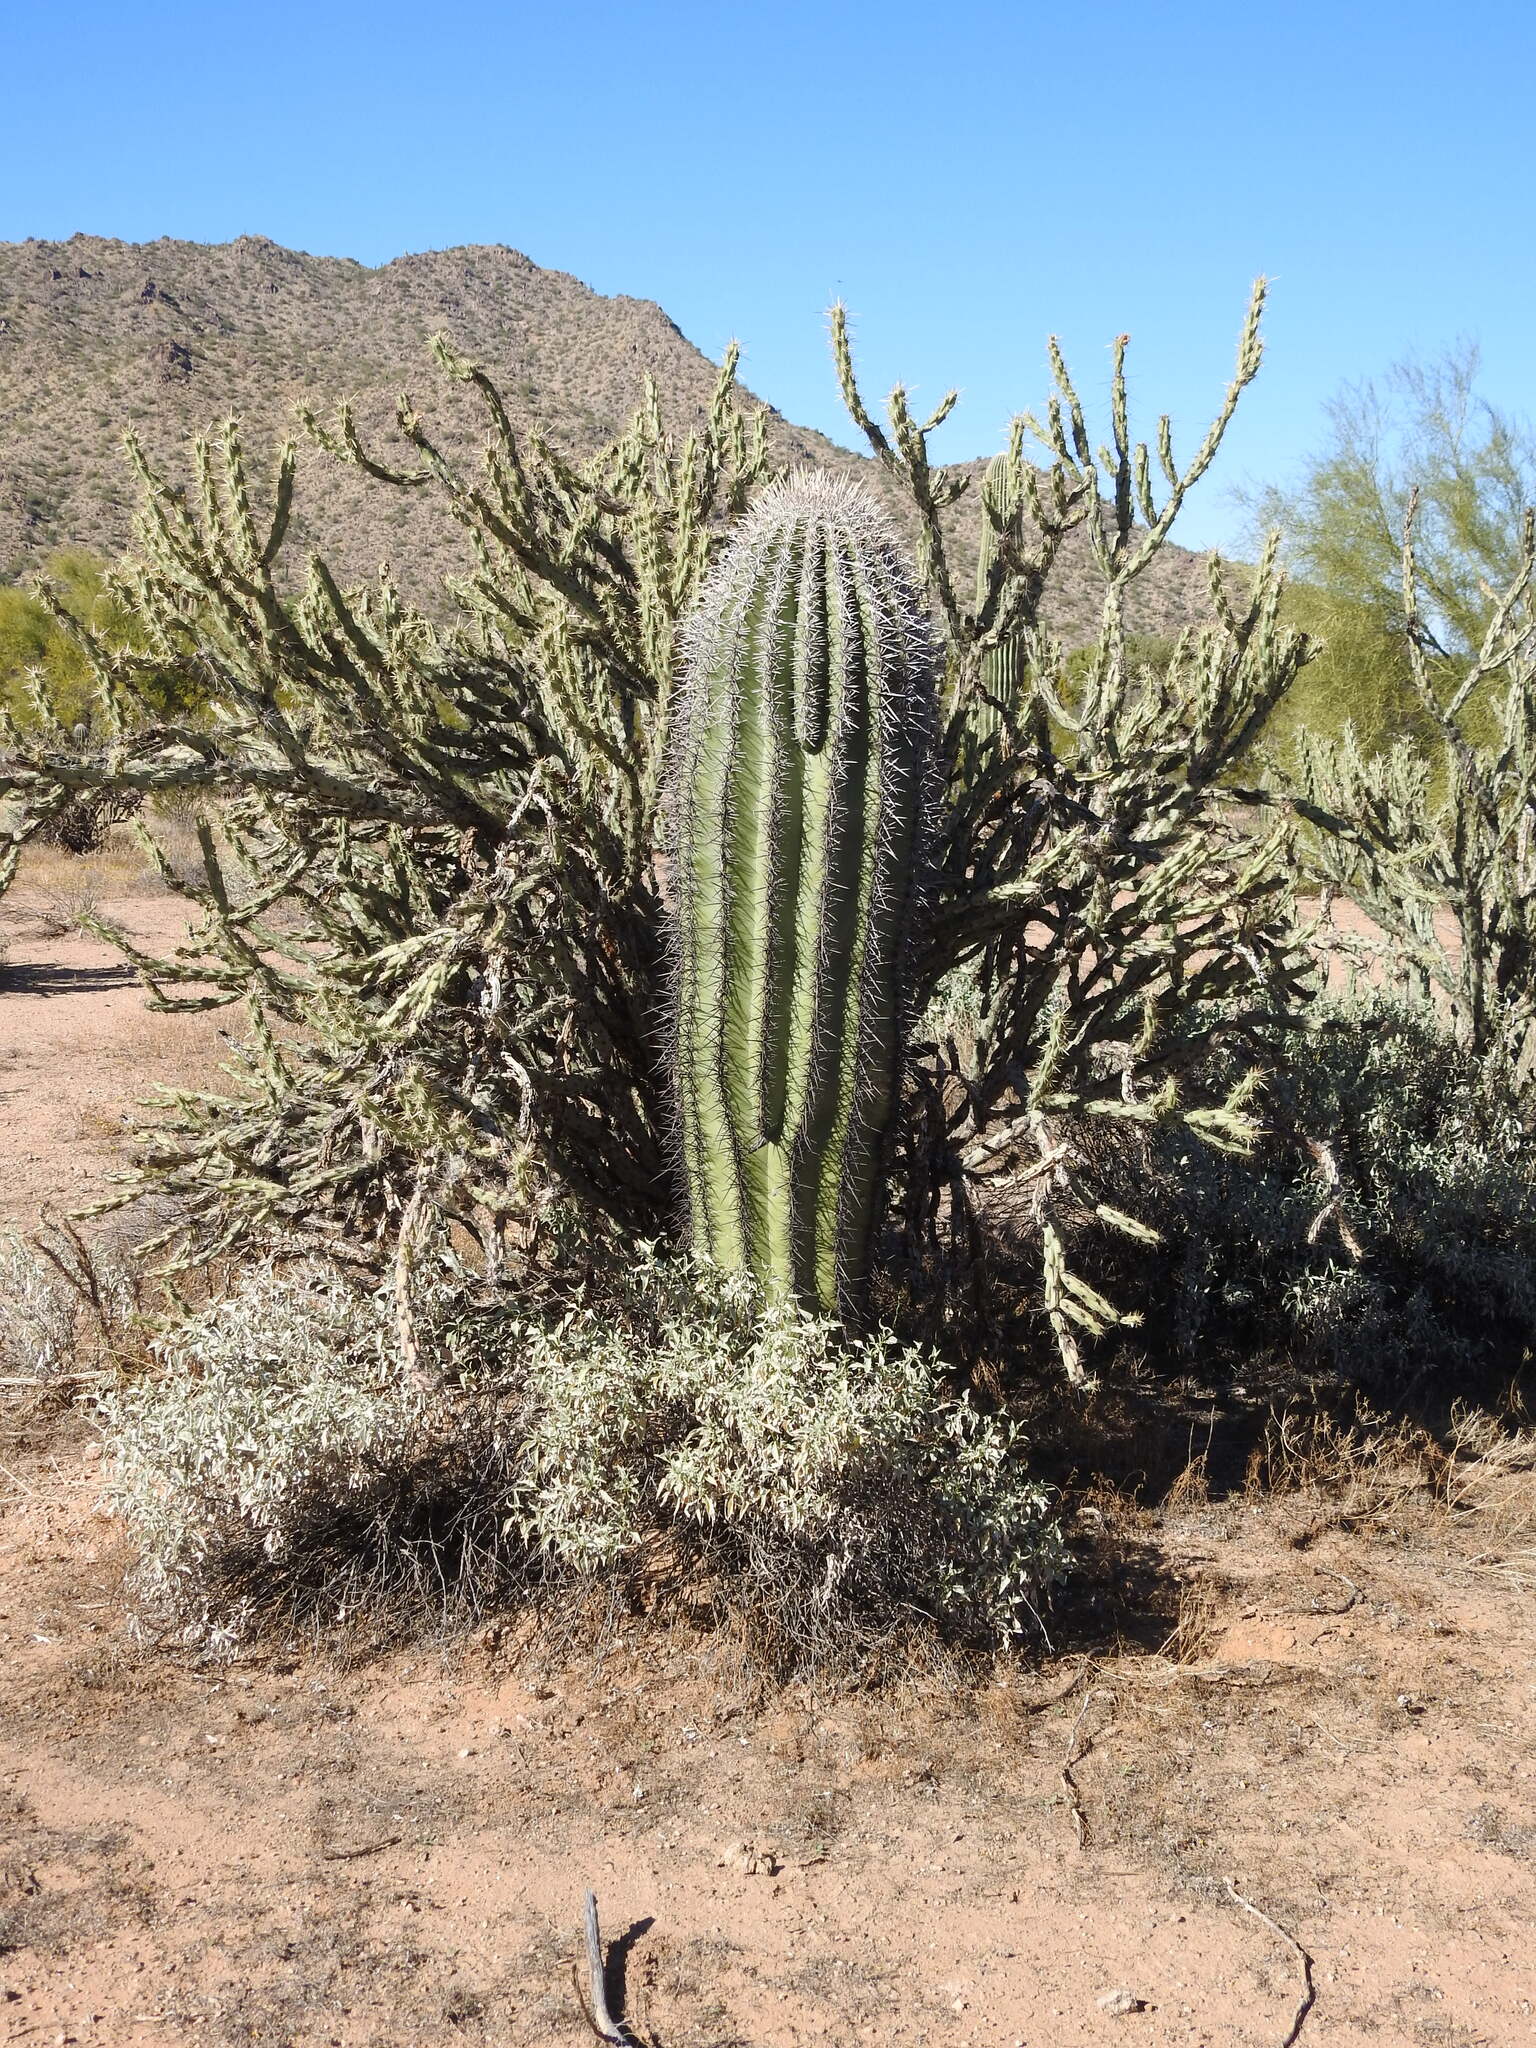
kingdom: Plantae
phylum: Tracheophyta
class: Magnoliopsida
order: Caryophyllales
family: Cactaceae
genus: Carnegiea
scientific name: Carnegiea gigantea
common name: Saguaro
